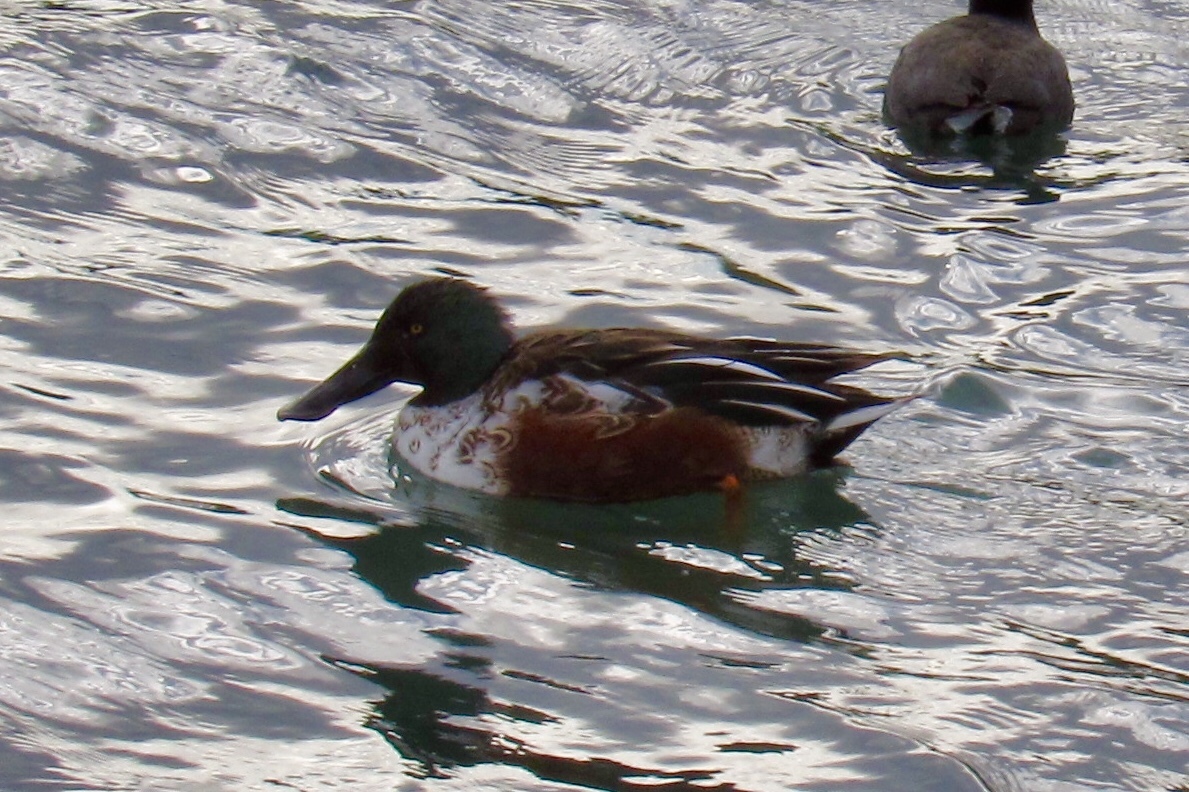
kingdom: Animalia
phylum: Chordata
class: Aves
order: Anseriformes
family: Anatidae
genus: Spatula
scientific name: Spatula clypeata
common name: Northern shoveler
